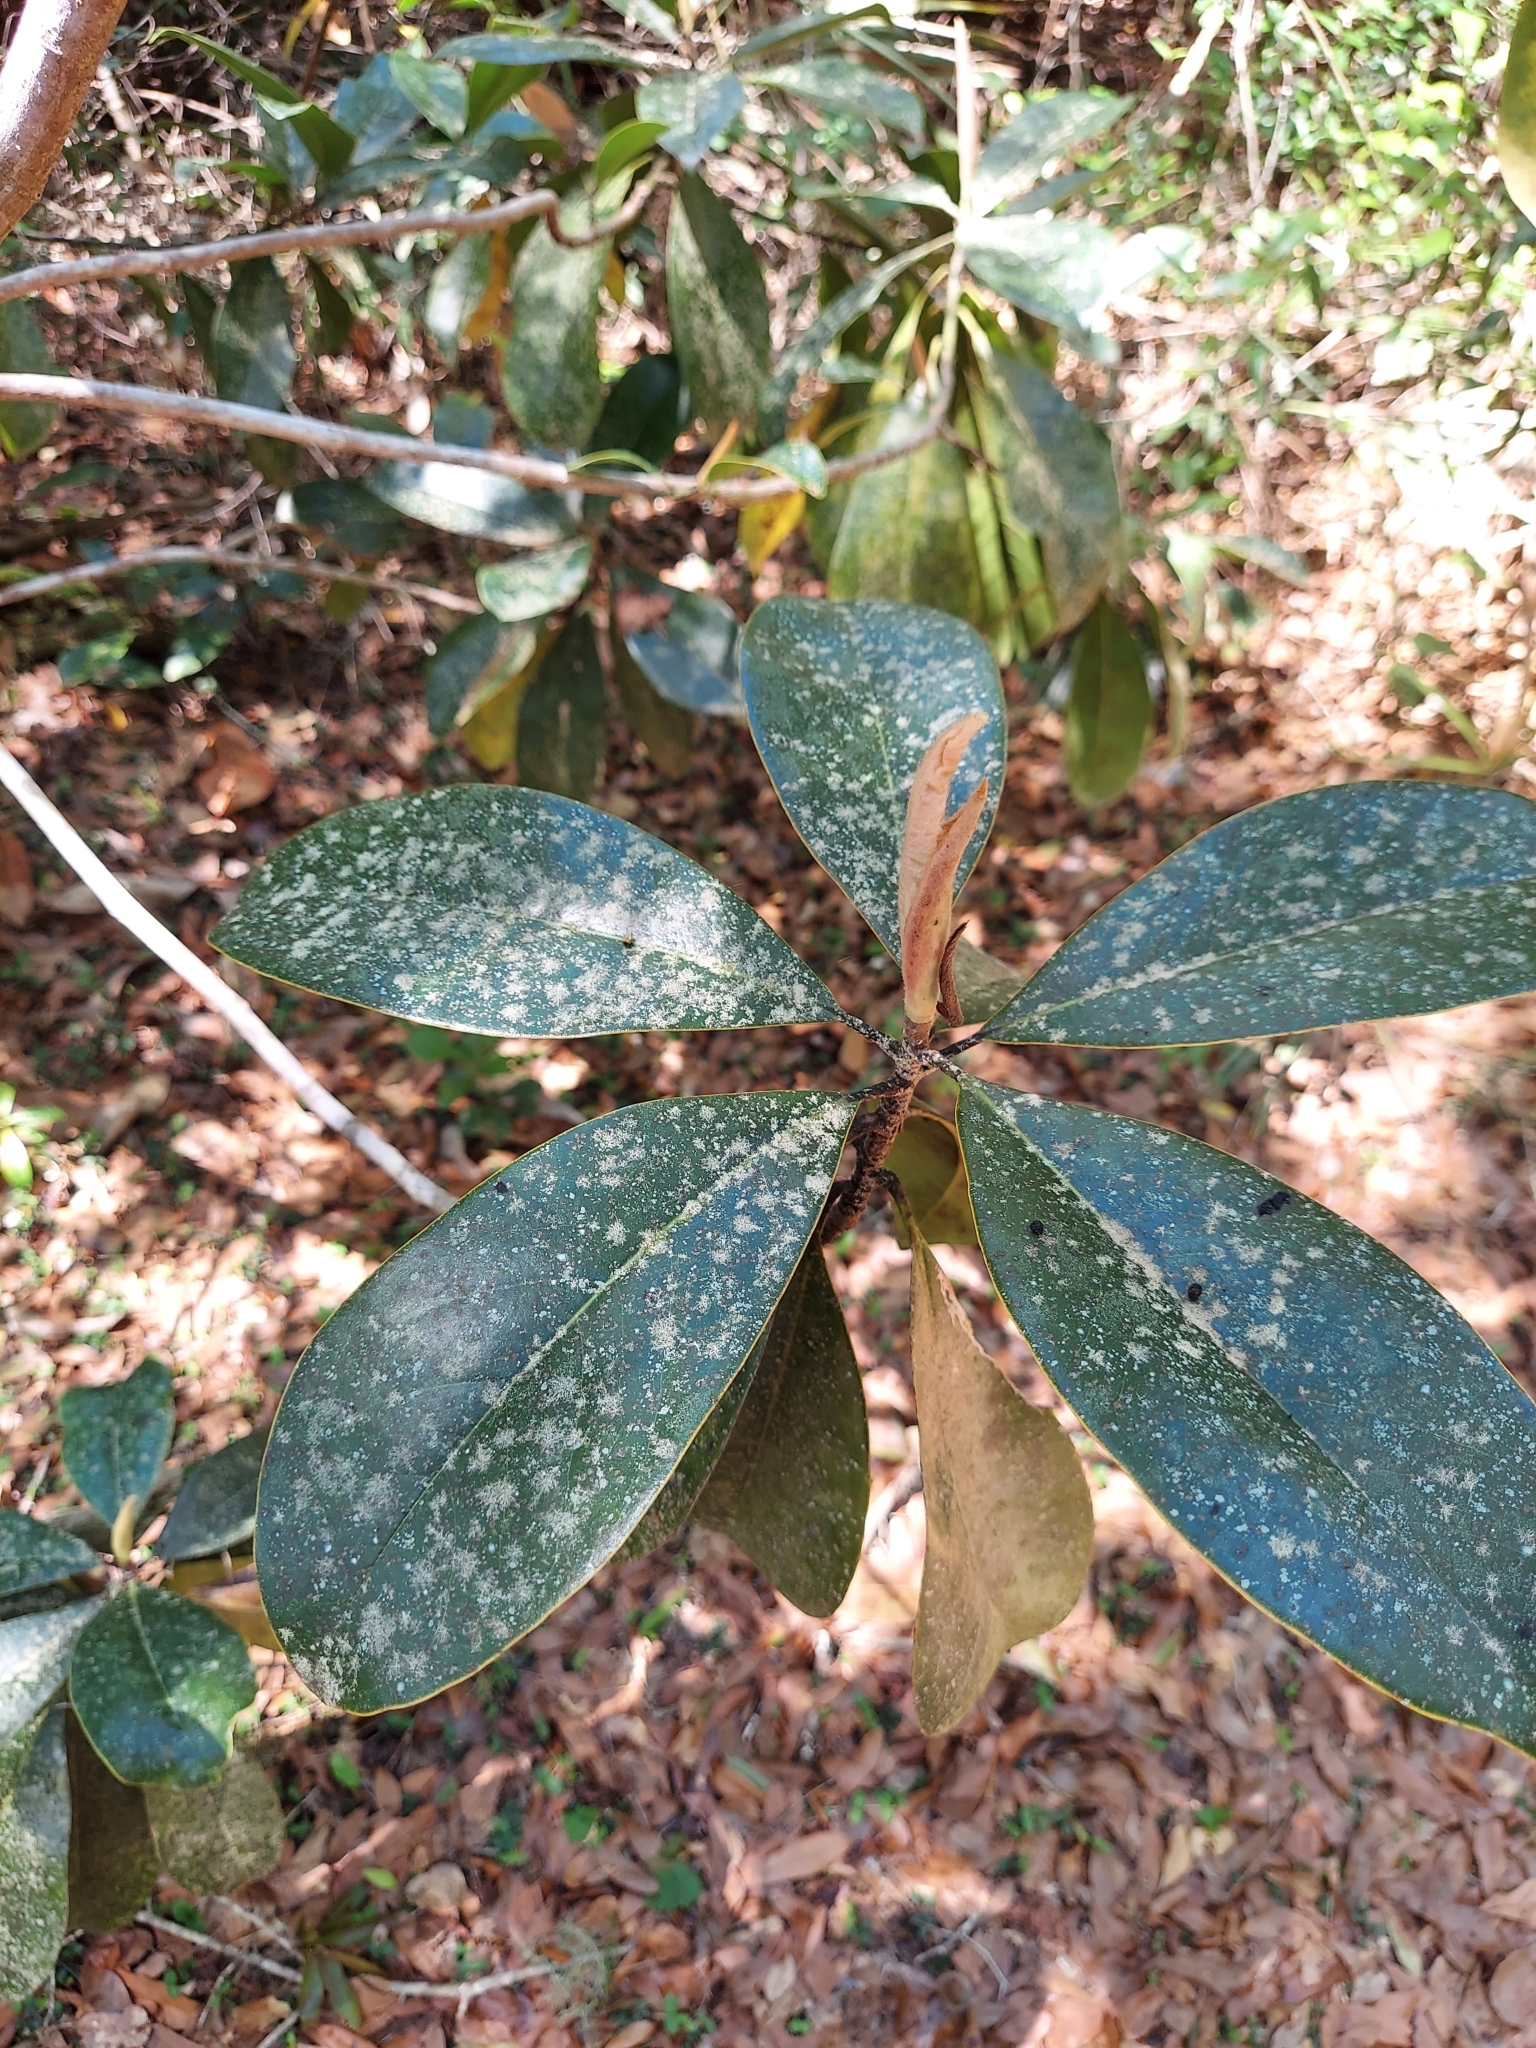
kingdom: Plantae
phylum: Tracheophyta
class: Magnoliopsida
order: Magnoliales
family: Magnoliaceae
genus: Magnolia
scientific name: Magnolia grandiflora
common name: Southern magnolia
